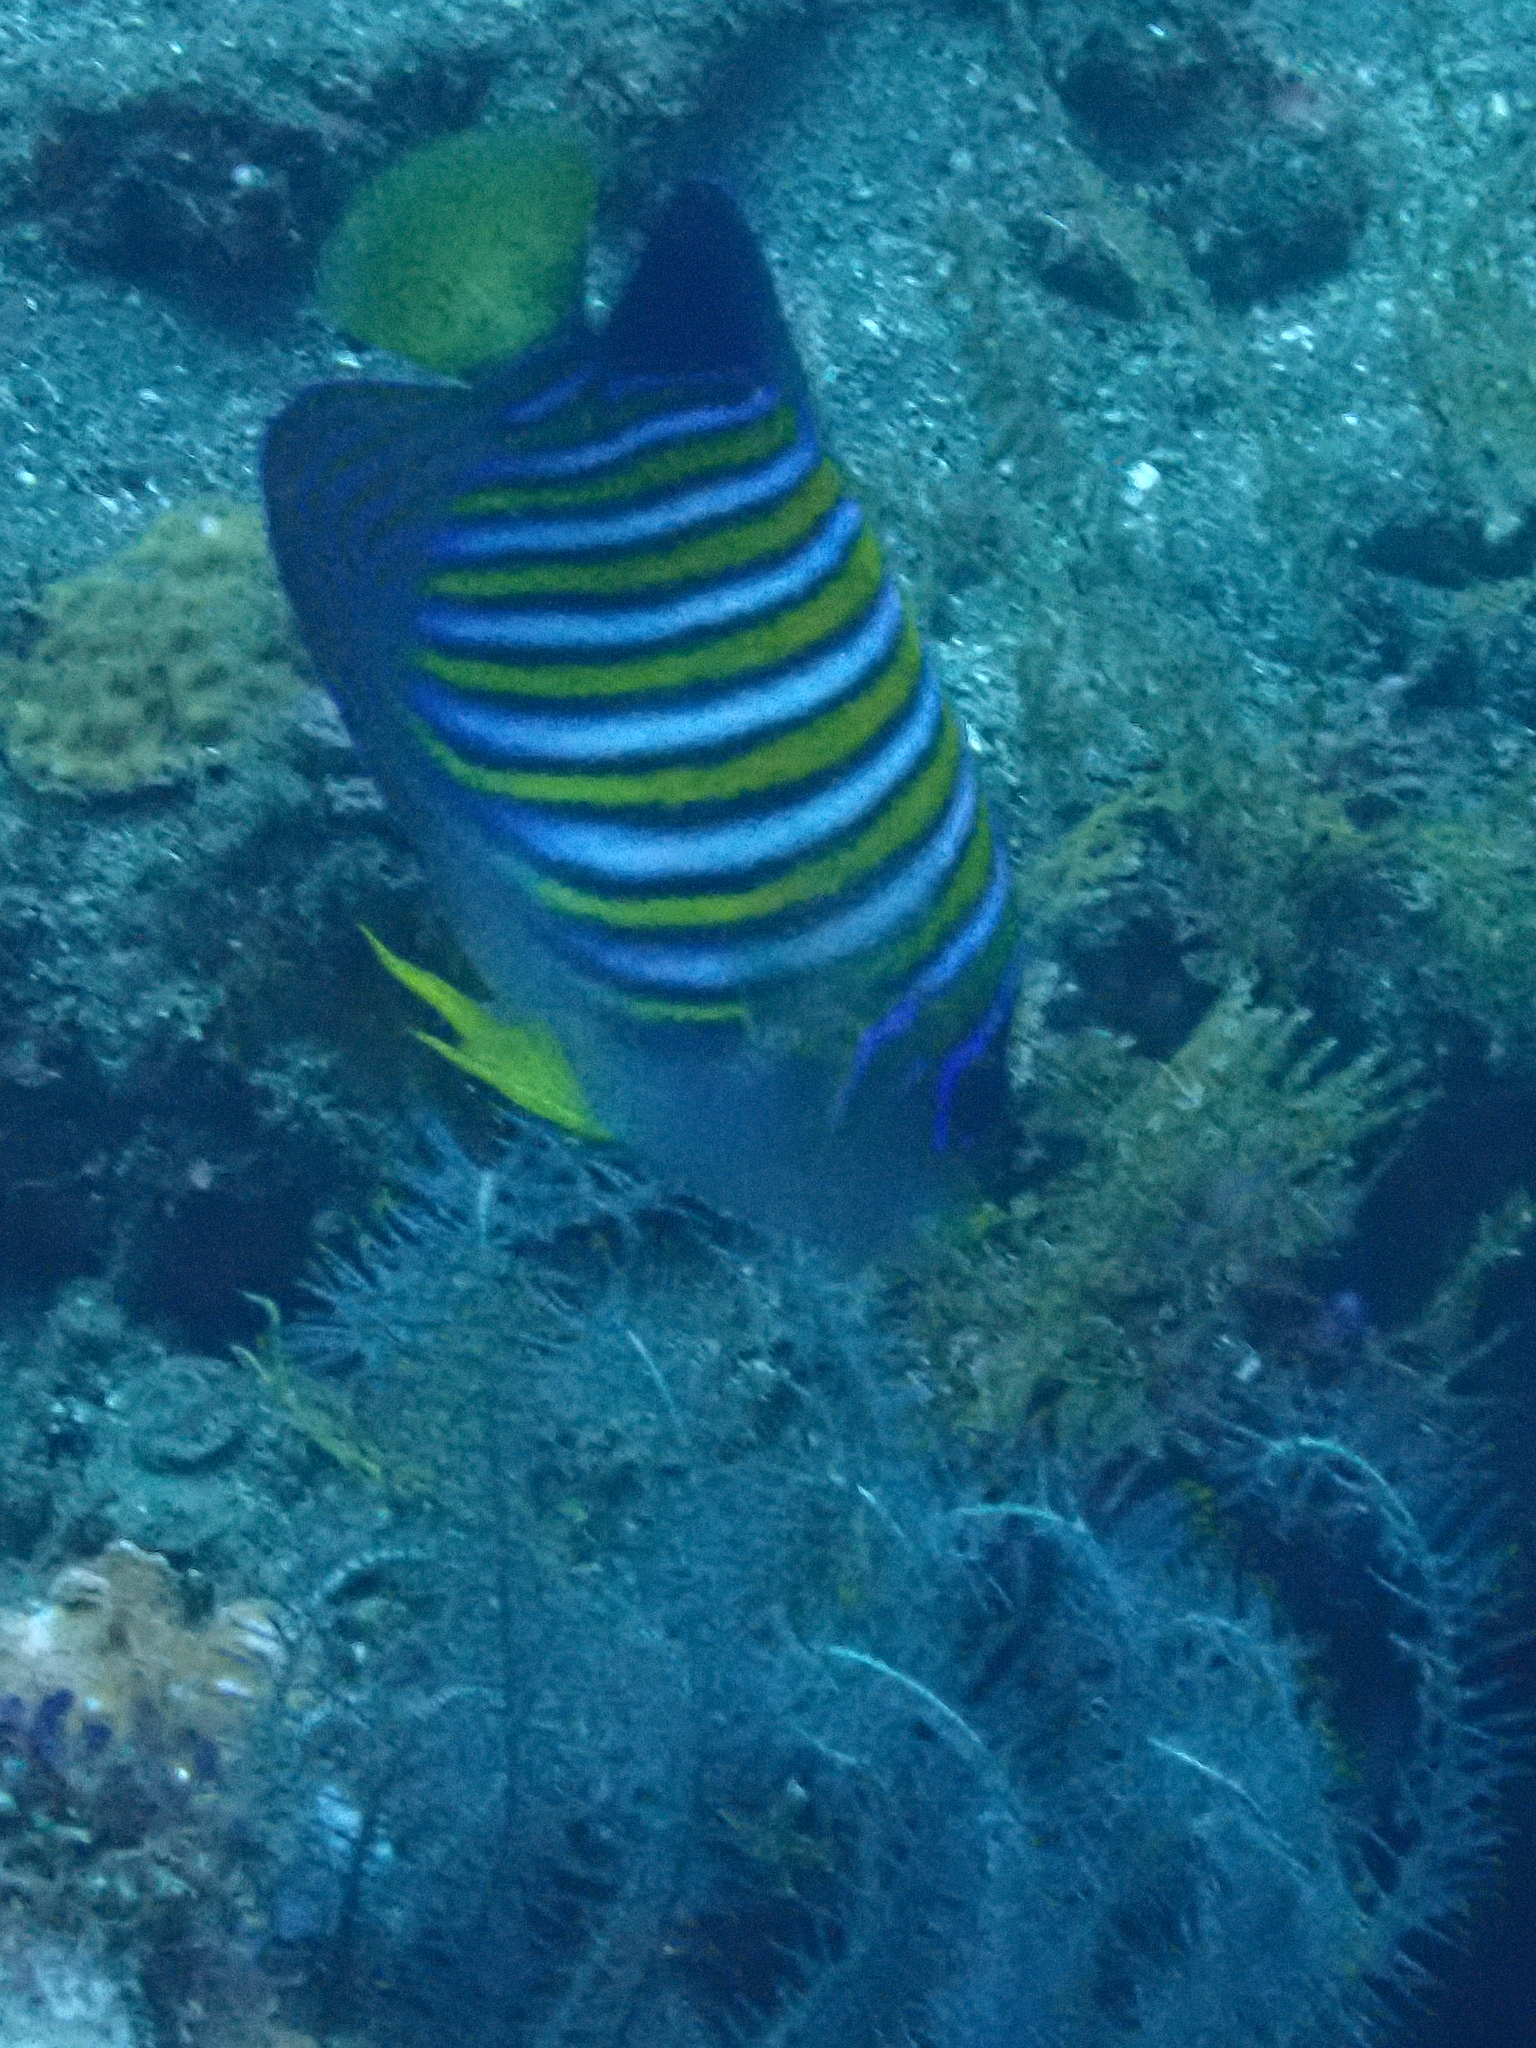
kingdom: Animalia
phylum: Chordata
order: Perciformes
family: Pomacanthidae
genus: Pygoplites
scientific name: Pygoplites diacanthus
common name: Regal angelfish
